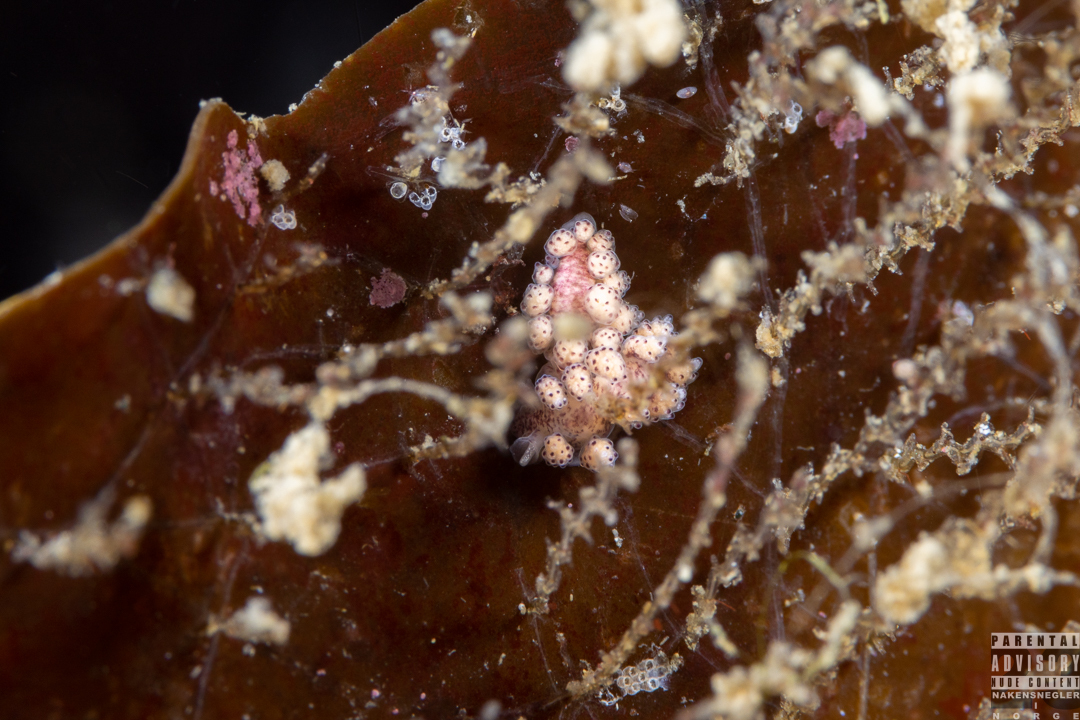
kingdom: Animalia
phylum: Mollusca
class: Gastropoda
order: Nudibranchia
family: Dotidae
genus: Doto
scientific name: Doto coronata
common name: Coronate doto
